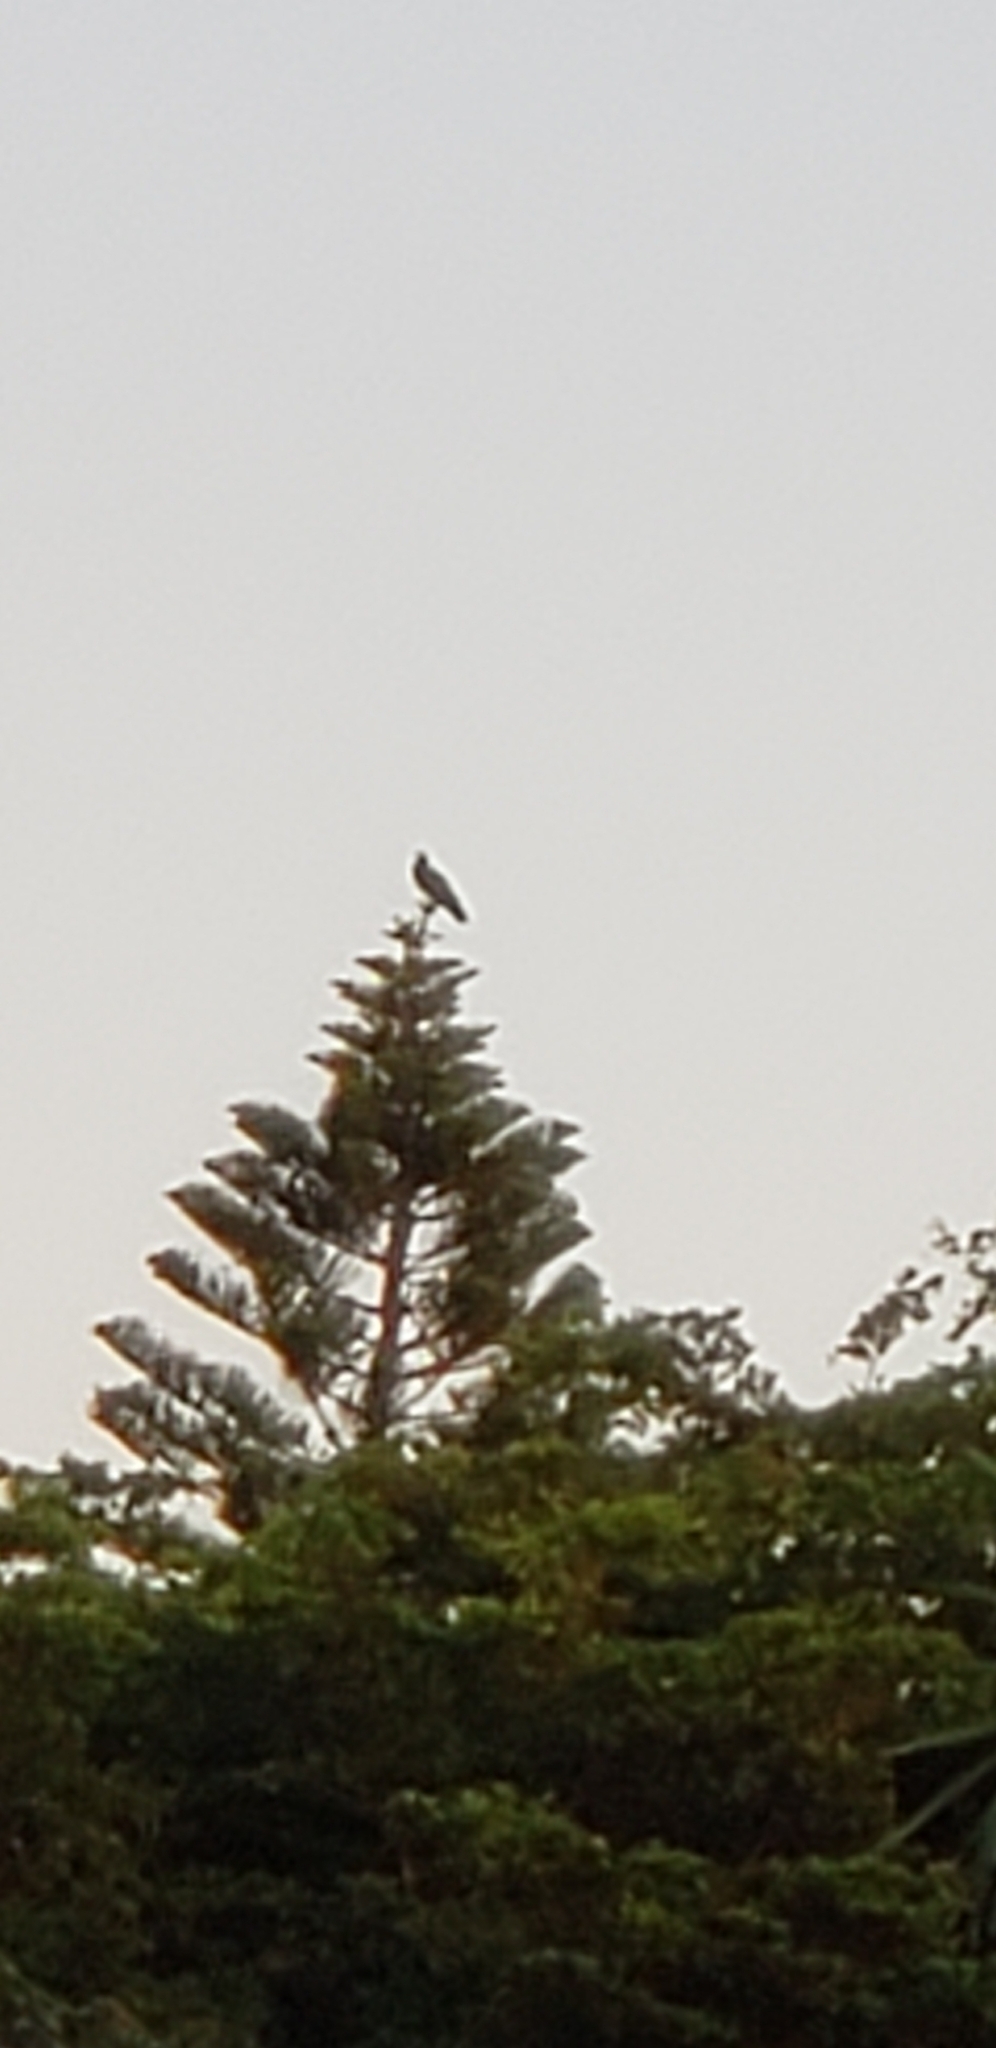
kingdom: Animalia
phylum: Chordata
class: Aves
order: Accipitriformes
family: Pandionidae
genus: Pandion
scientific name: Pandion haliaetus
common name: Osprey
